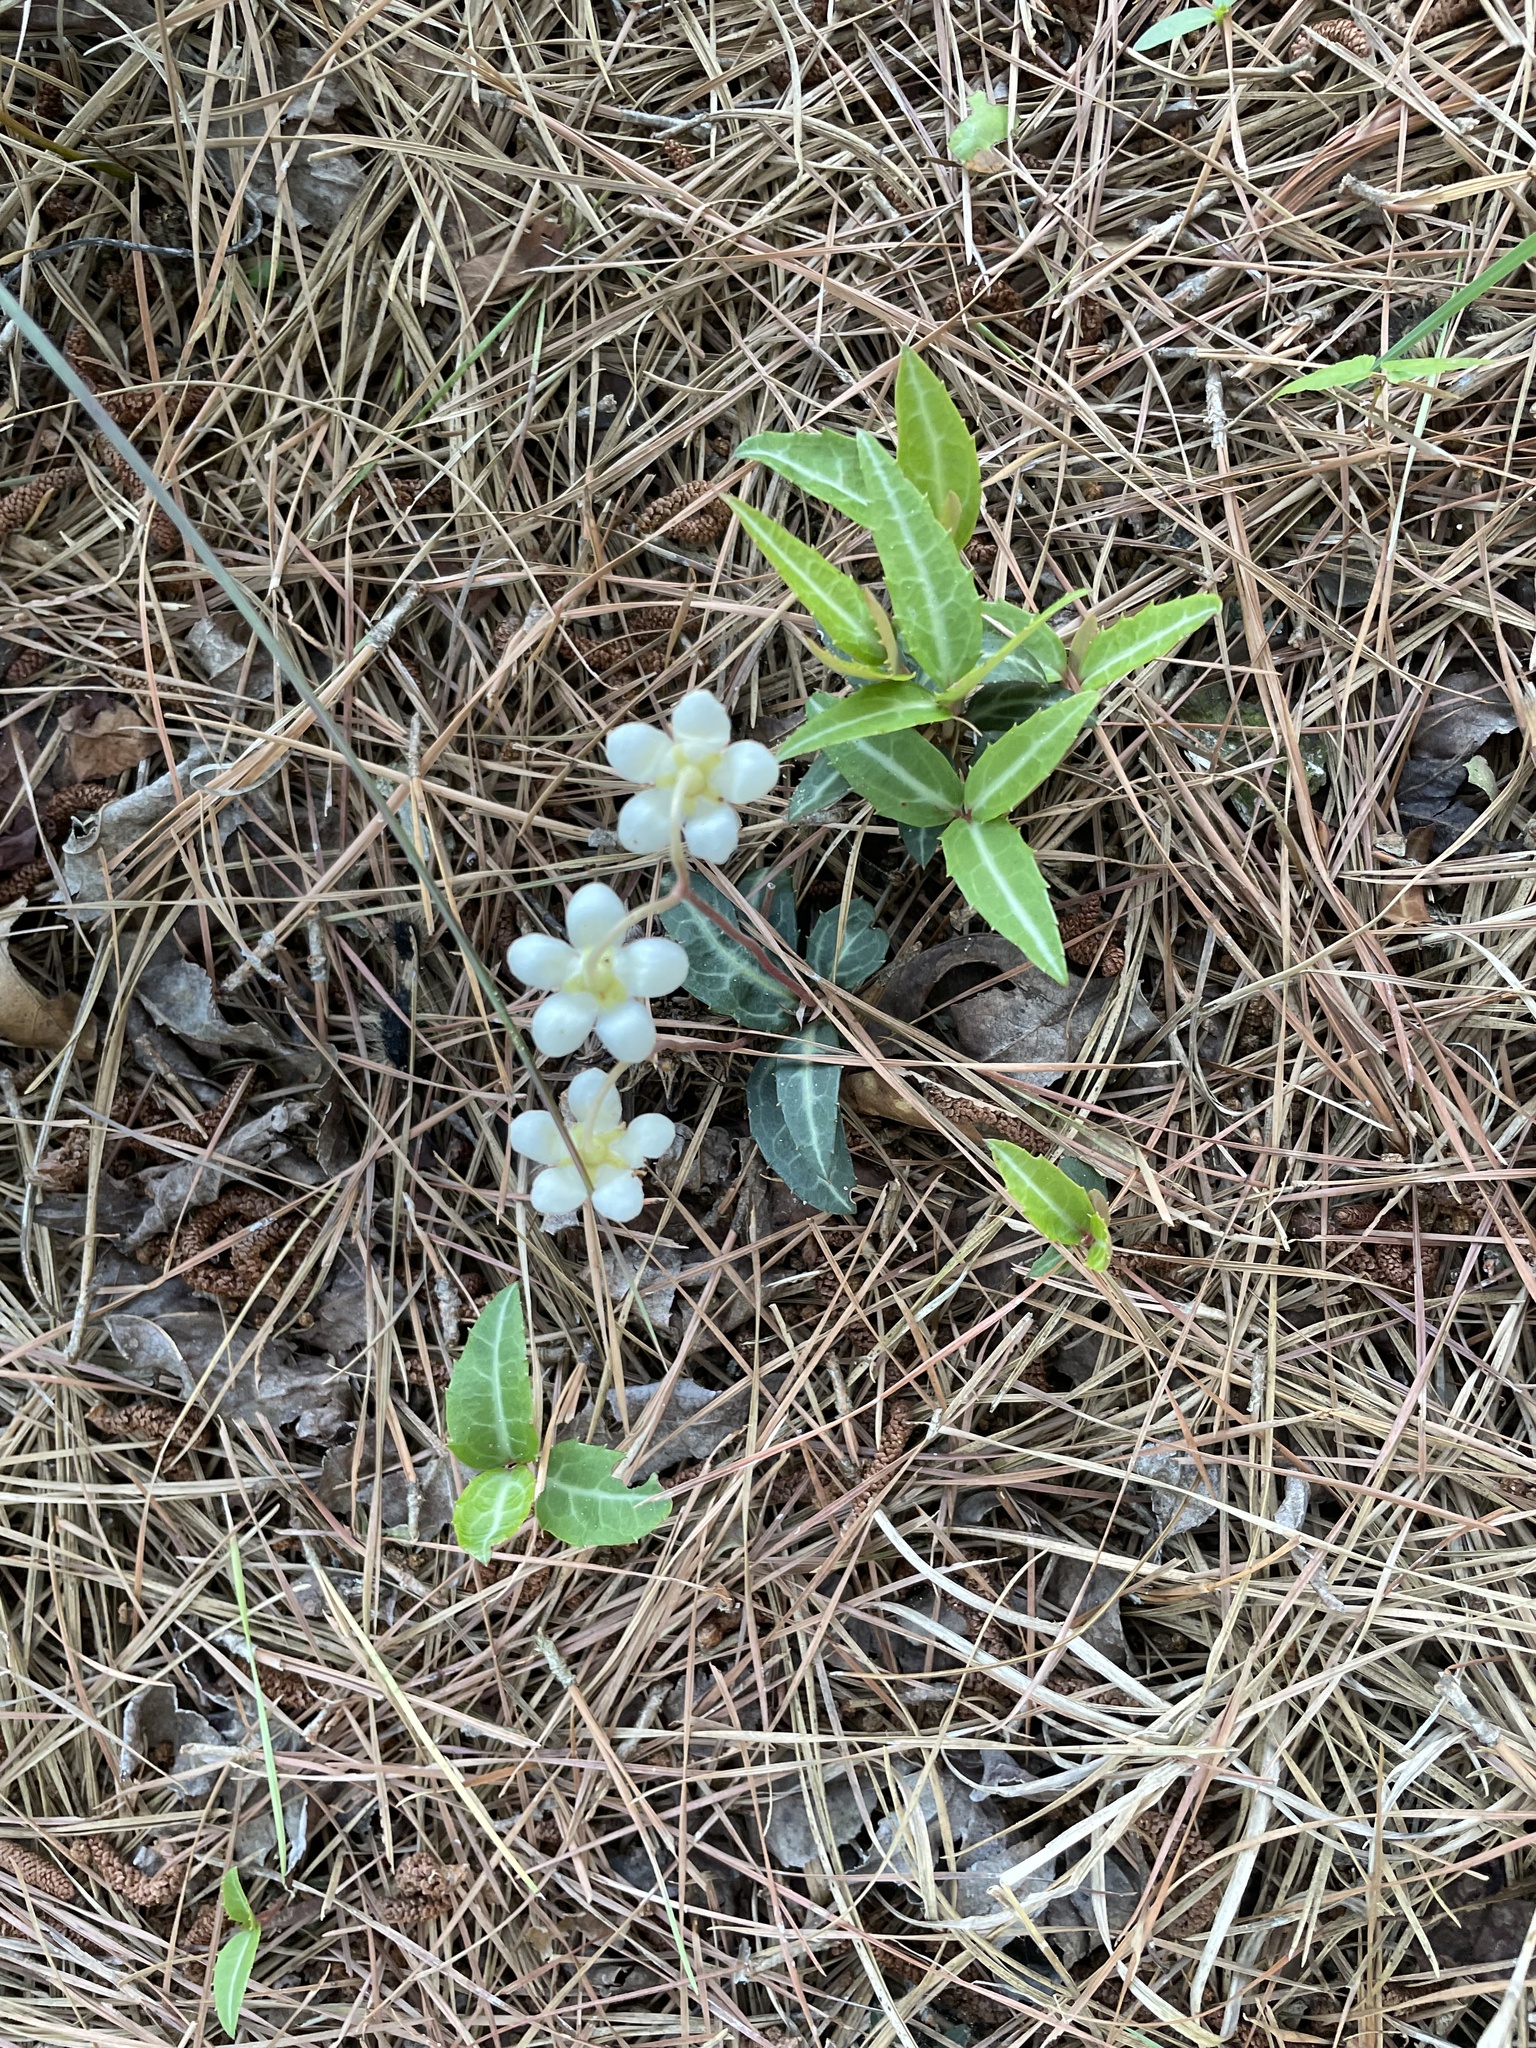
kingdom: Plantae
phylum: Tracheophyta
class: Magnoliopsida
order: Ericales
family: Ericaceae
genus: Chimaphila
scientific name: Chimaphila maculata
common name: Spotted pipsissewa
